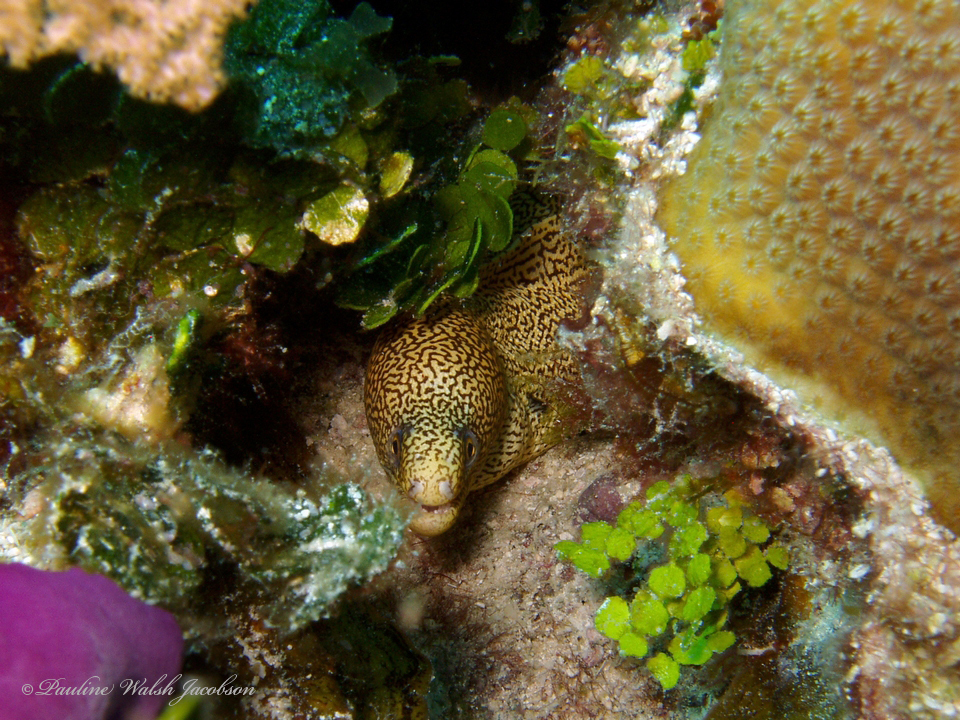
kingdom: Animalia
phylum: Chordata
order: Anguilliformes
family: Muraenidae
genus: Gymnothorax
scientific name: Gymnothorax miliaris
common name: Goldentail moray
